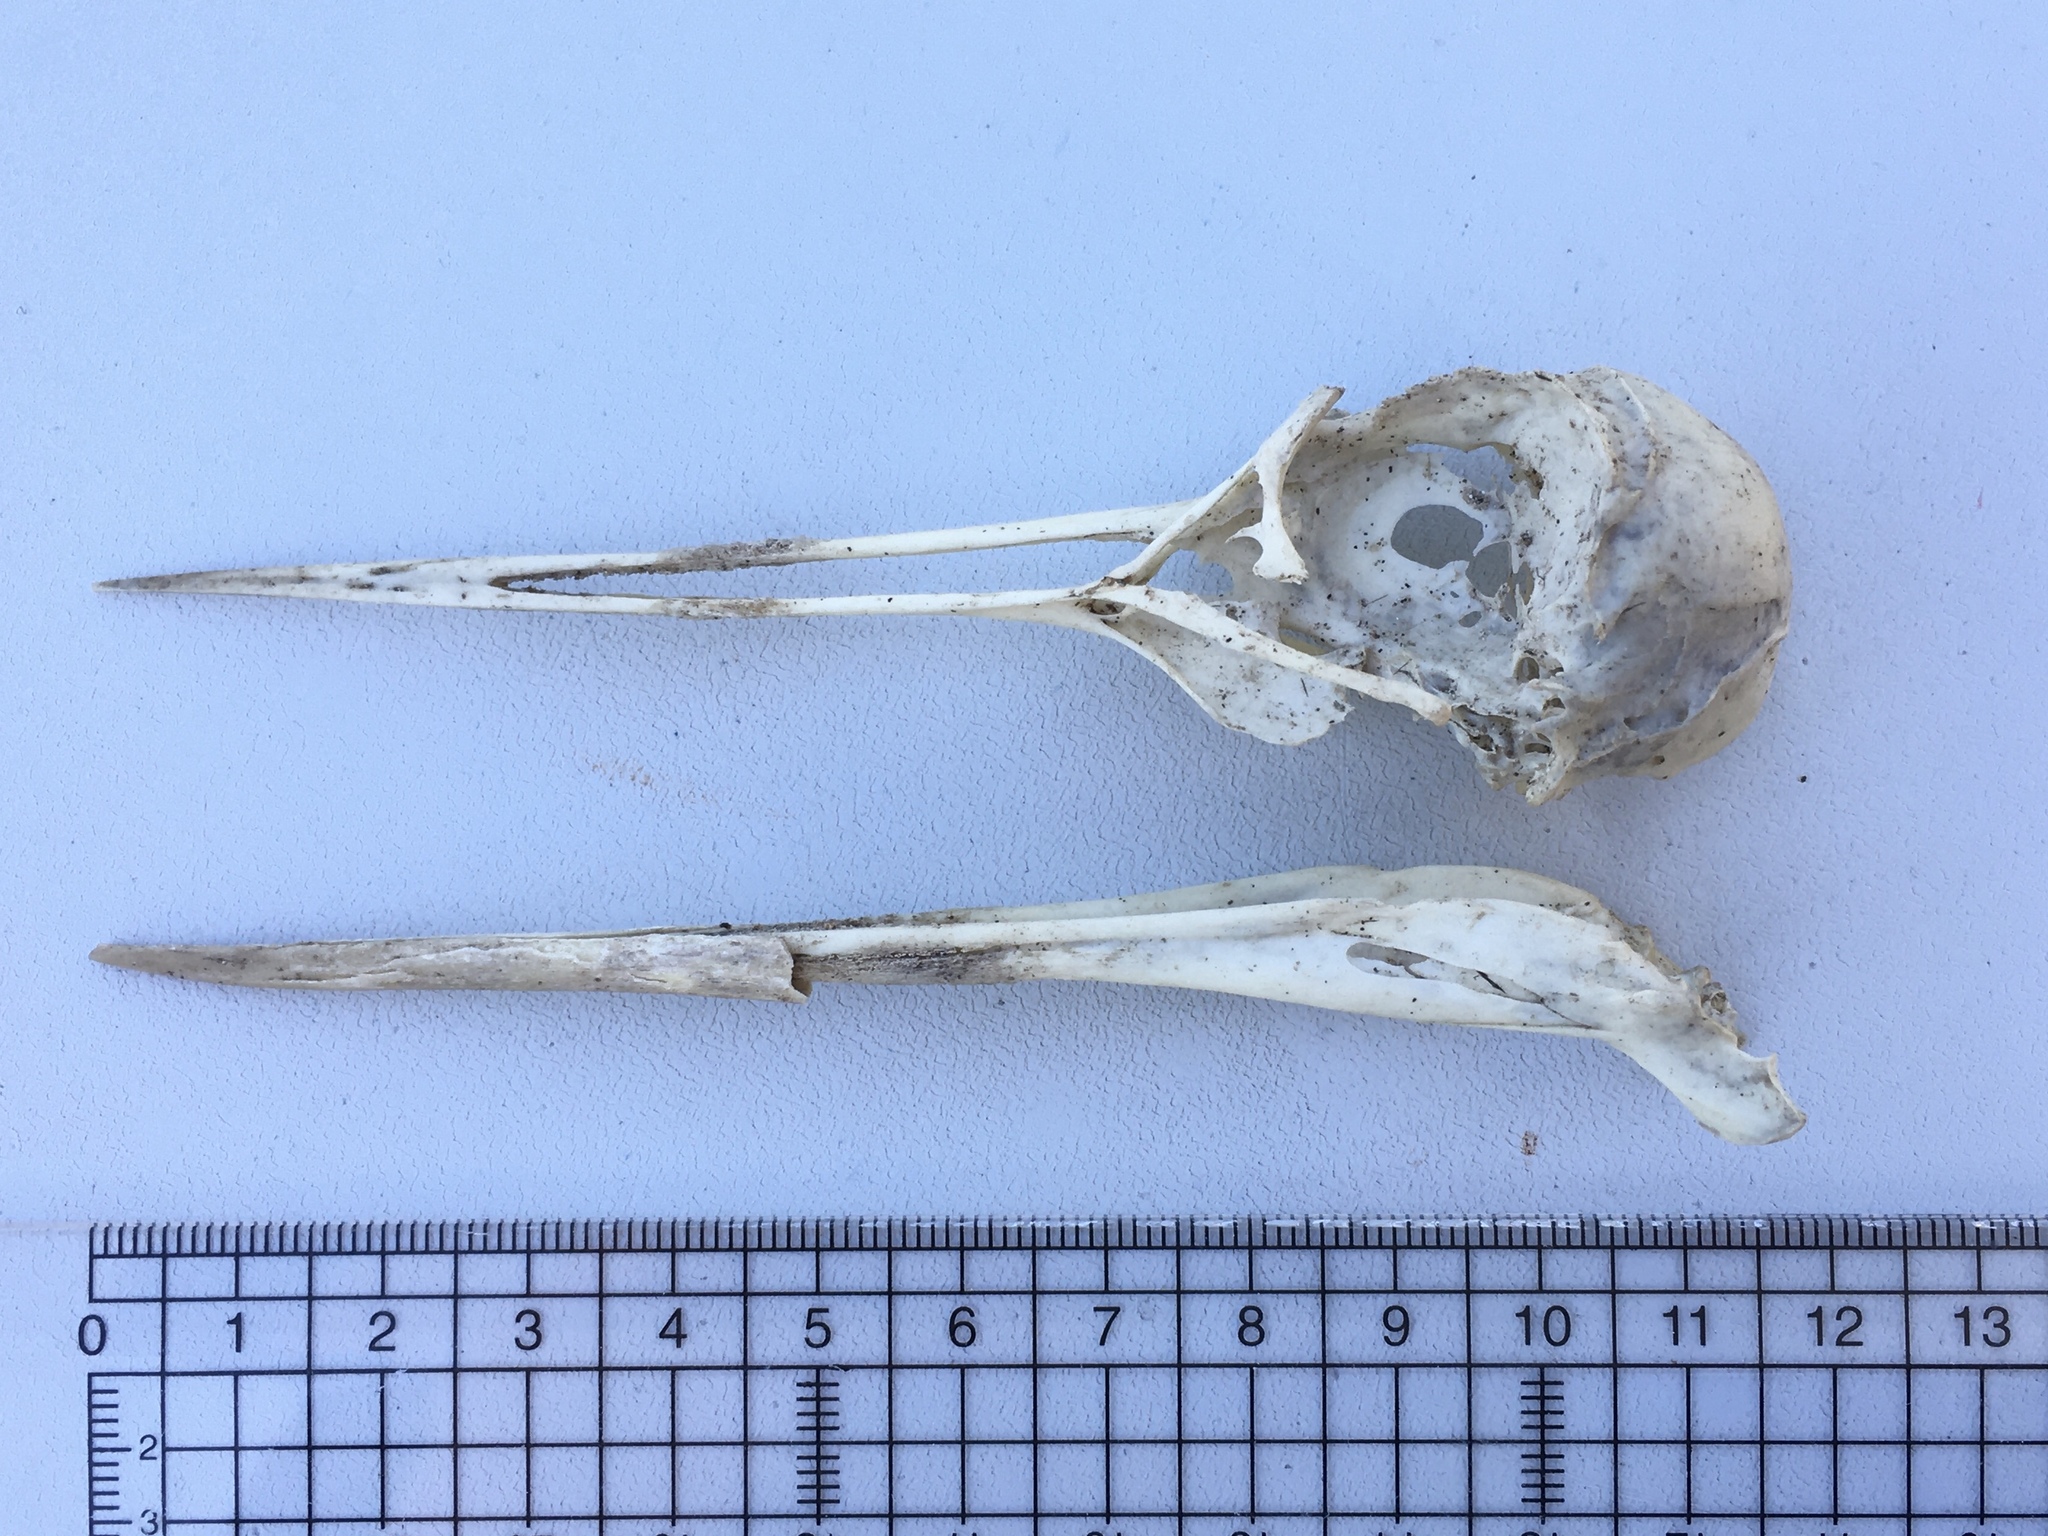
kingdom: Animalia
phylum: Chordata
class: Aves
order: Charadriiformes
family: Haematopodidae
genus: Haematopus
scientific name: Haematopus ostralegus
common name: Eurasian oystercatcher
